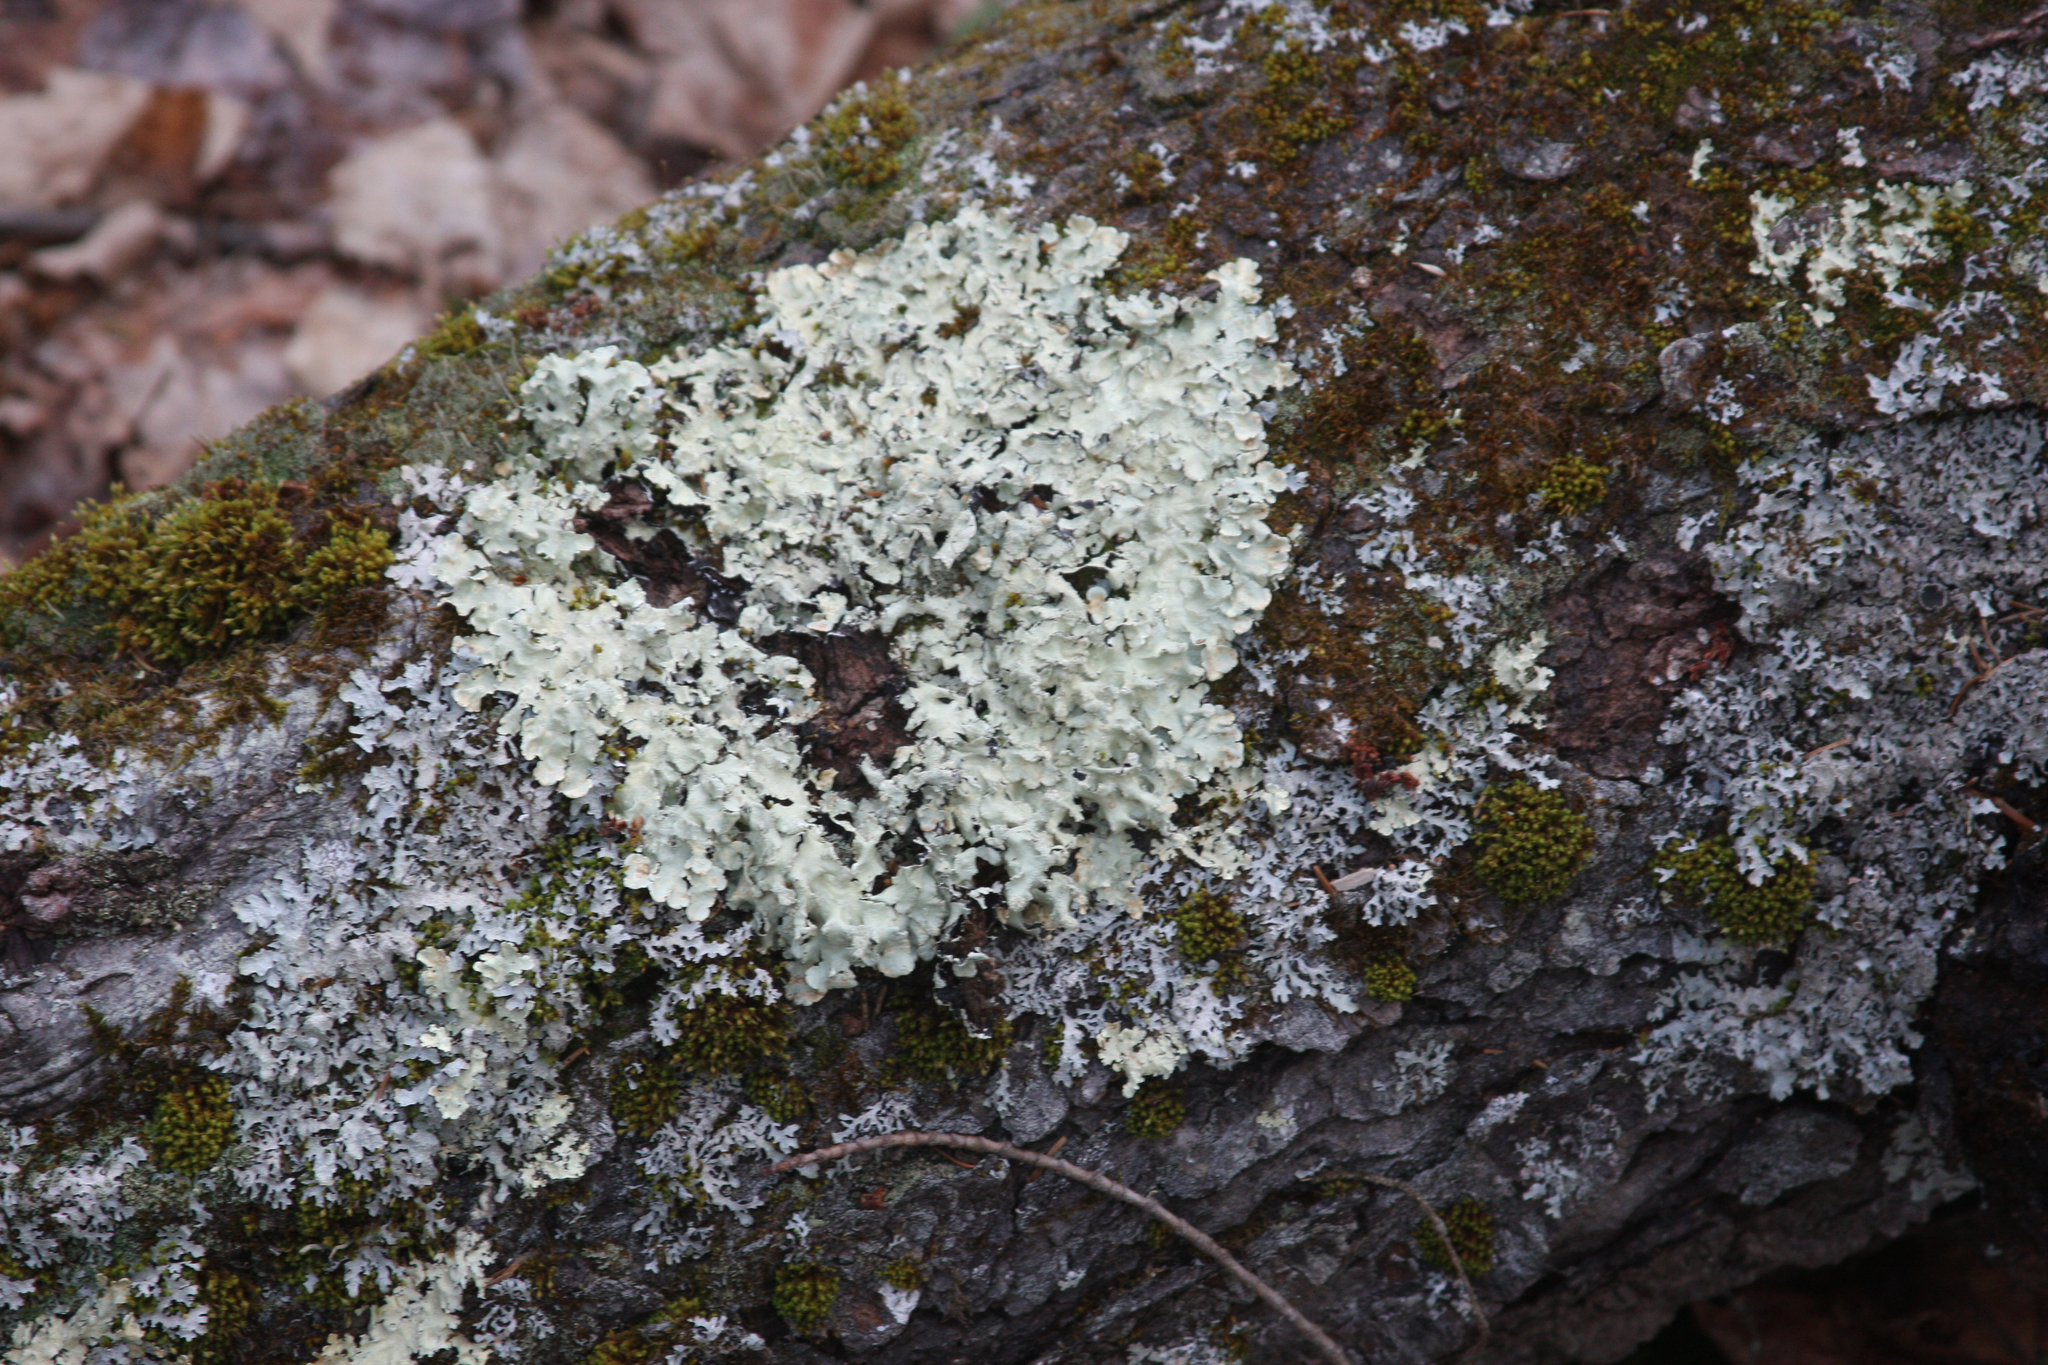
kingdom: Plantae
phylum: Bryophyta
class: Bryopsida
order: Orthotrichales
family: Orthotrichaceae
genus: Ulota
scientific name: Ulota crispa
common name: Crisped pincushion moss
